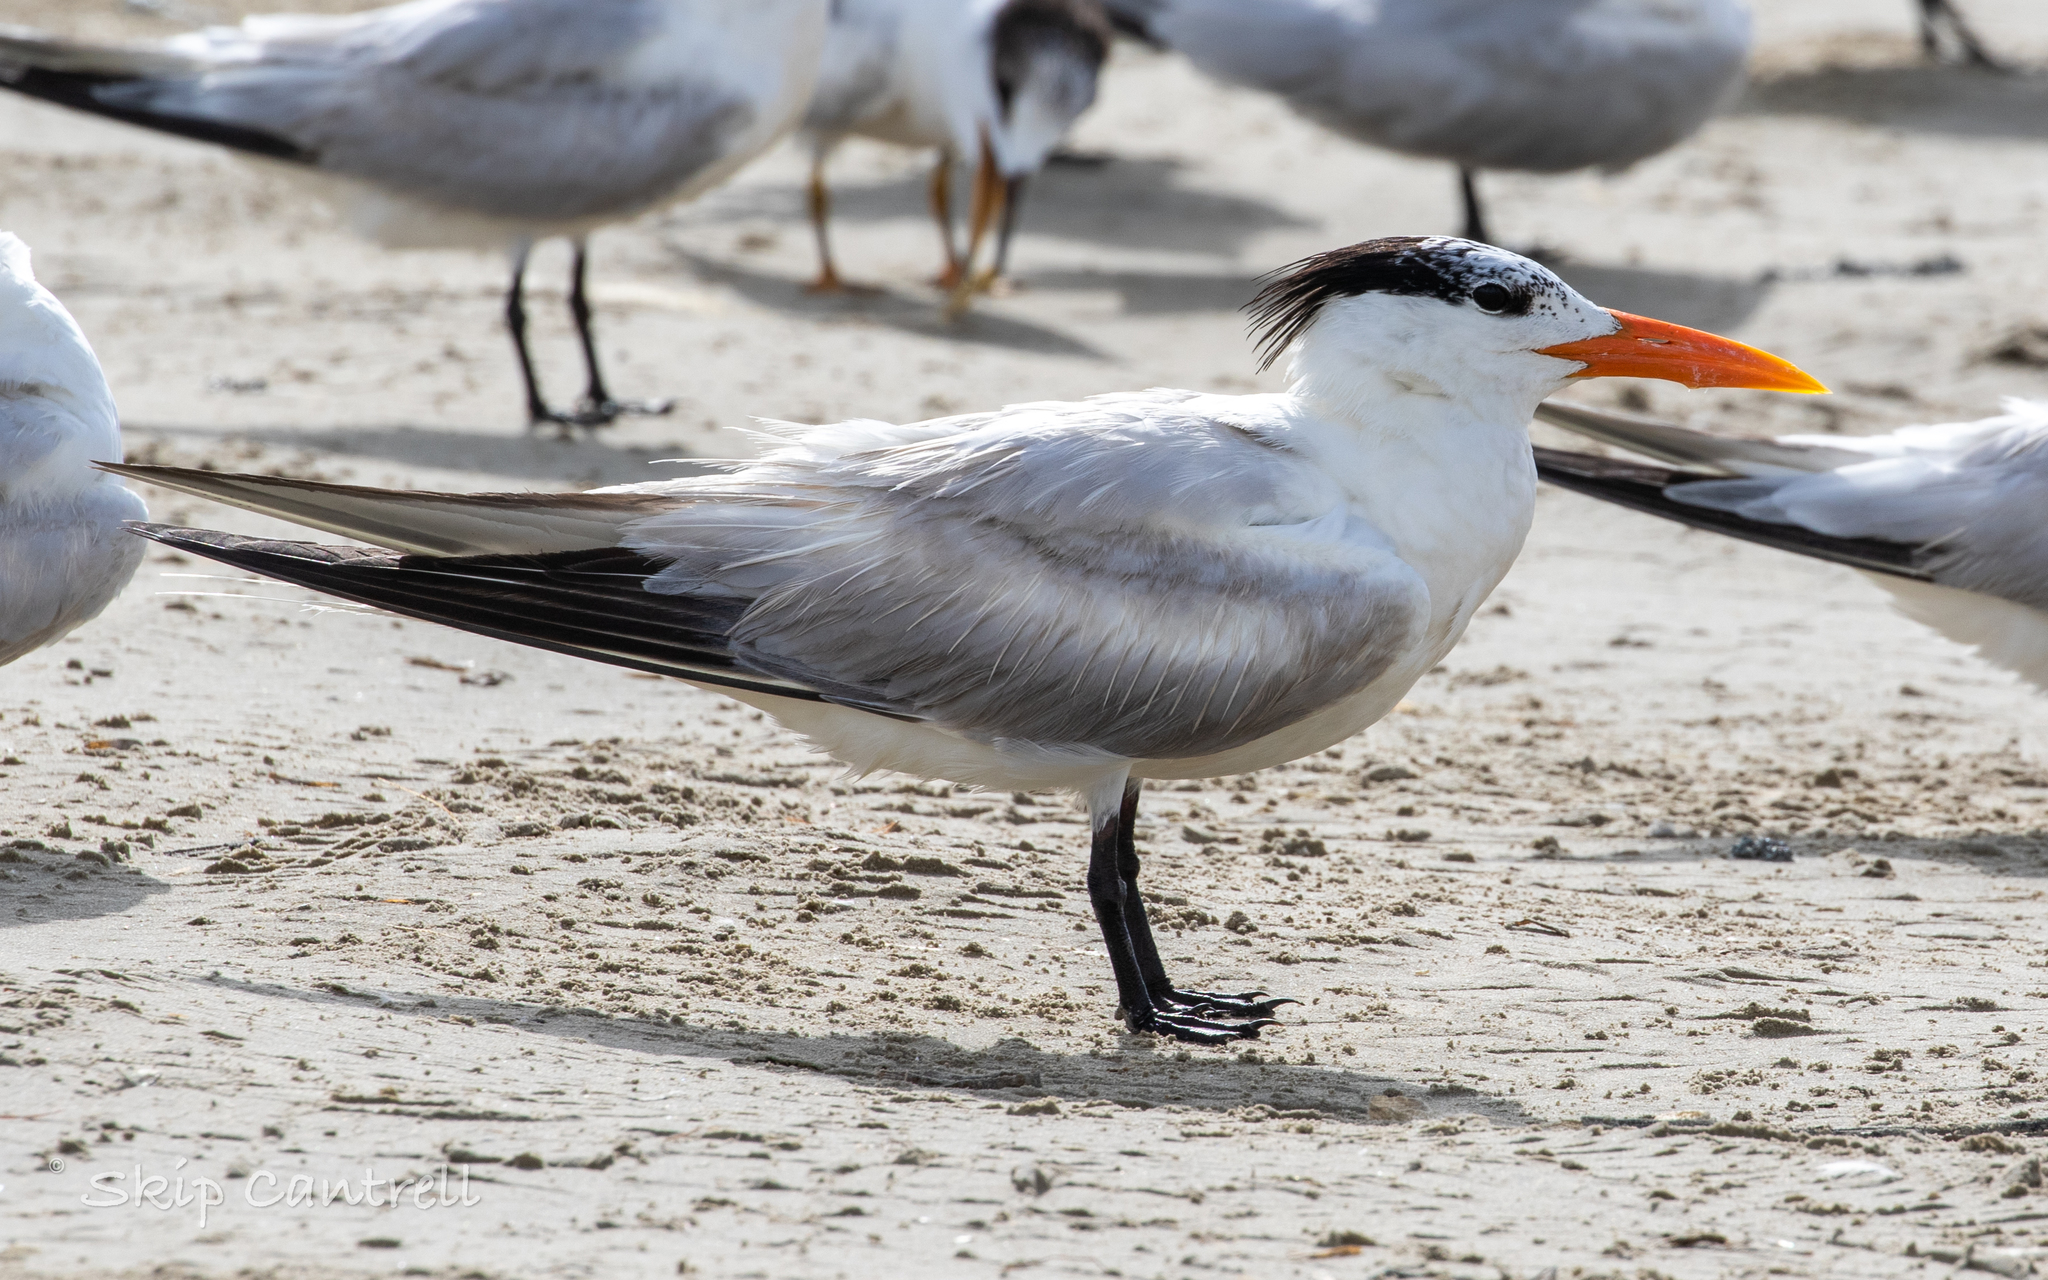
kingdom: Animalia
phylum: Chordata
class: Aves
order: Charadriiformes
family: Laridae
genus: Thalasseus
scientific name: Thalasseus maximus
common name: Royal tern
